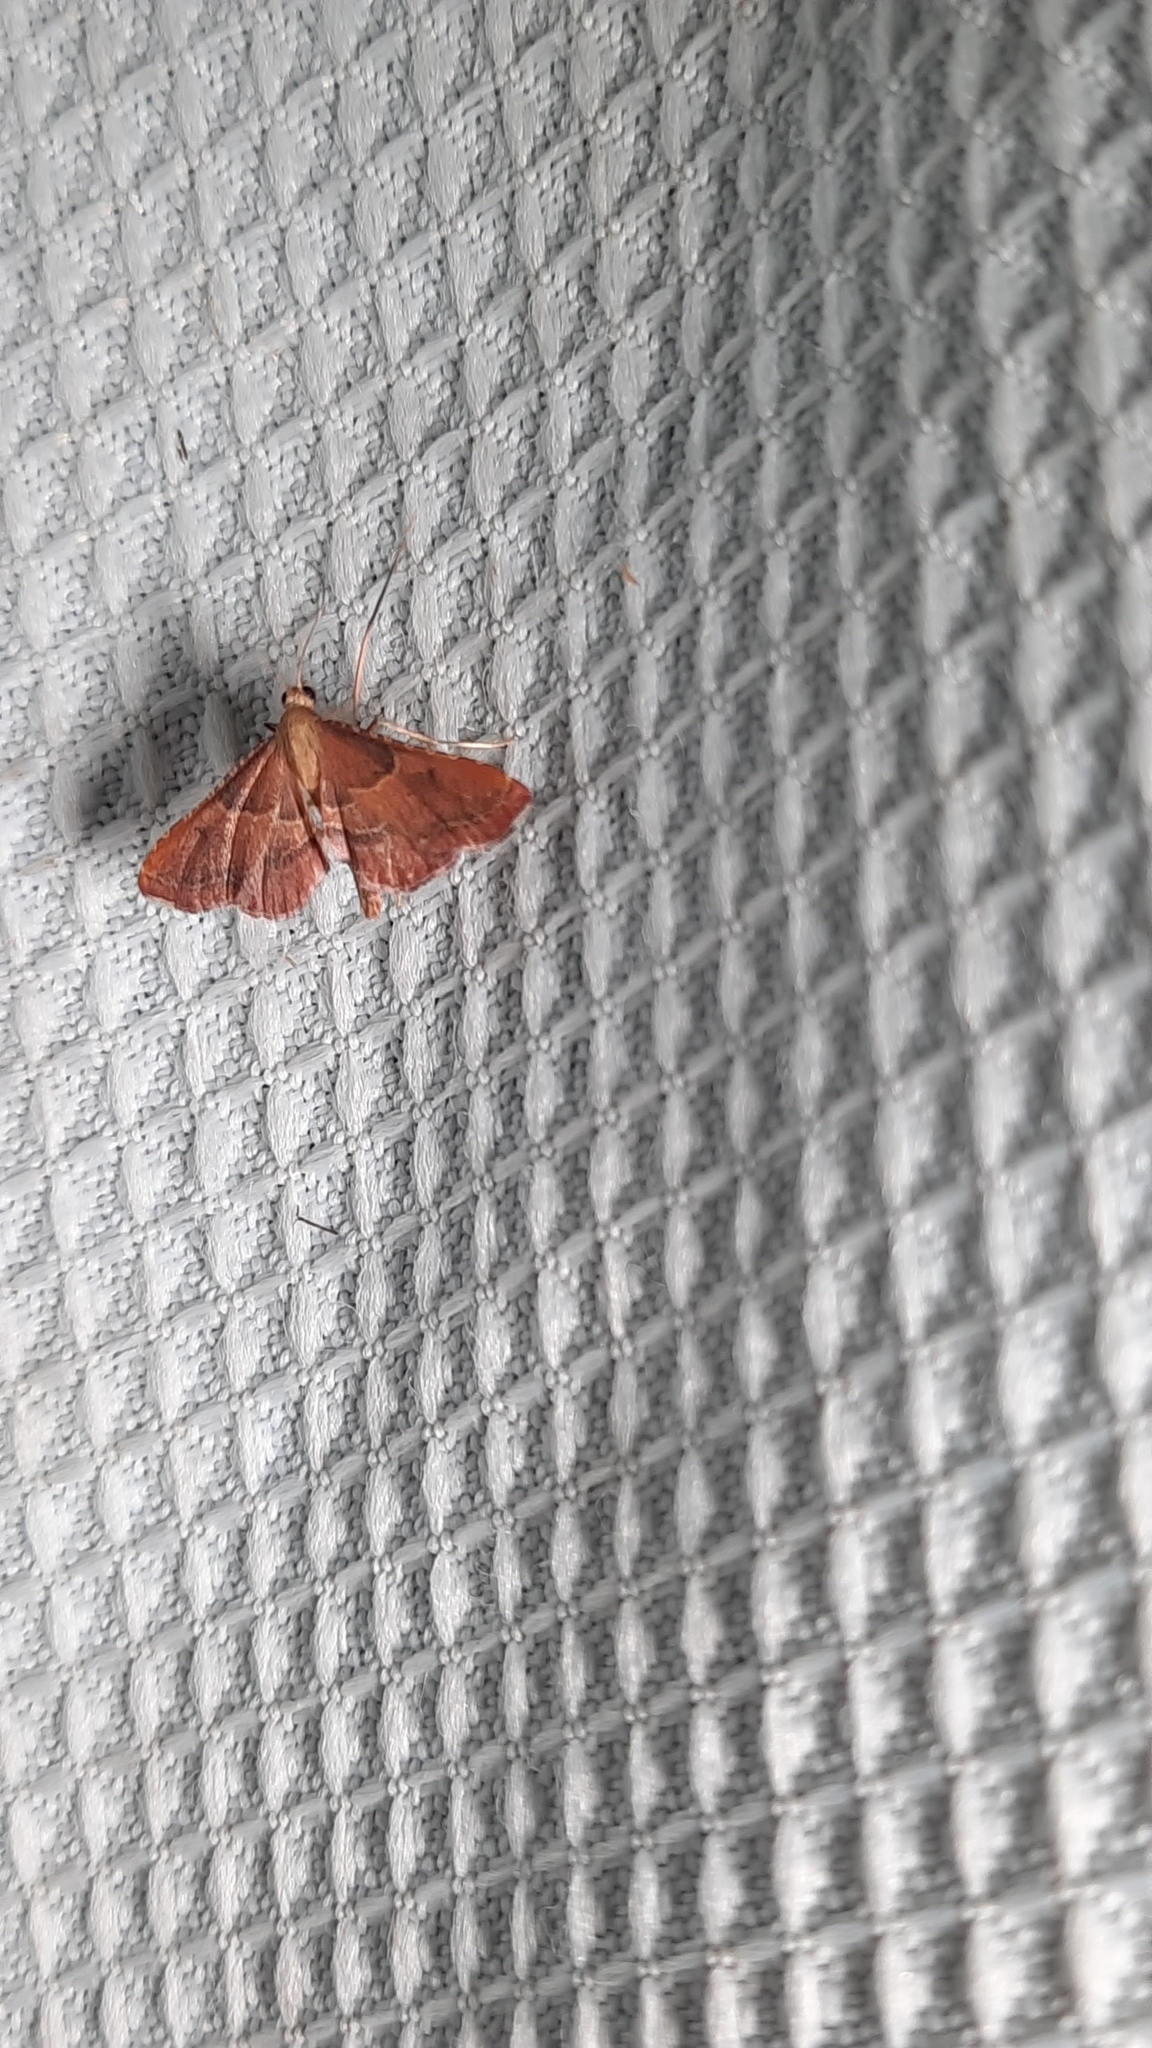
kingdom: Animalia
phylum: Arthropoda
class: Insecta
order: Lepidoptera
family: Pyralidae
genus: Endotricha
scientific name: Endotricha flammealis
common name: Rosy tabby
